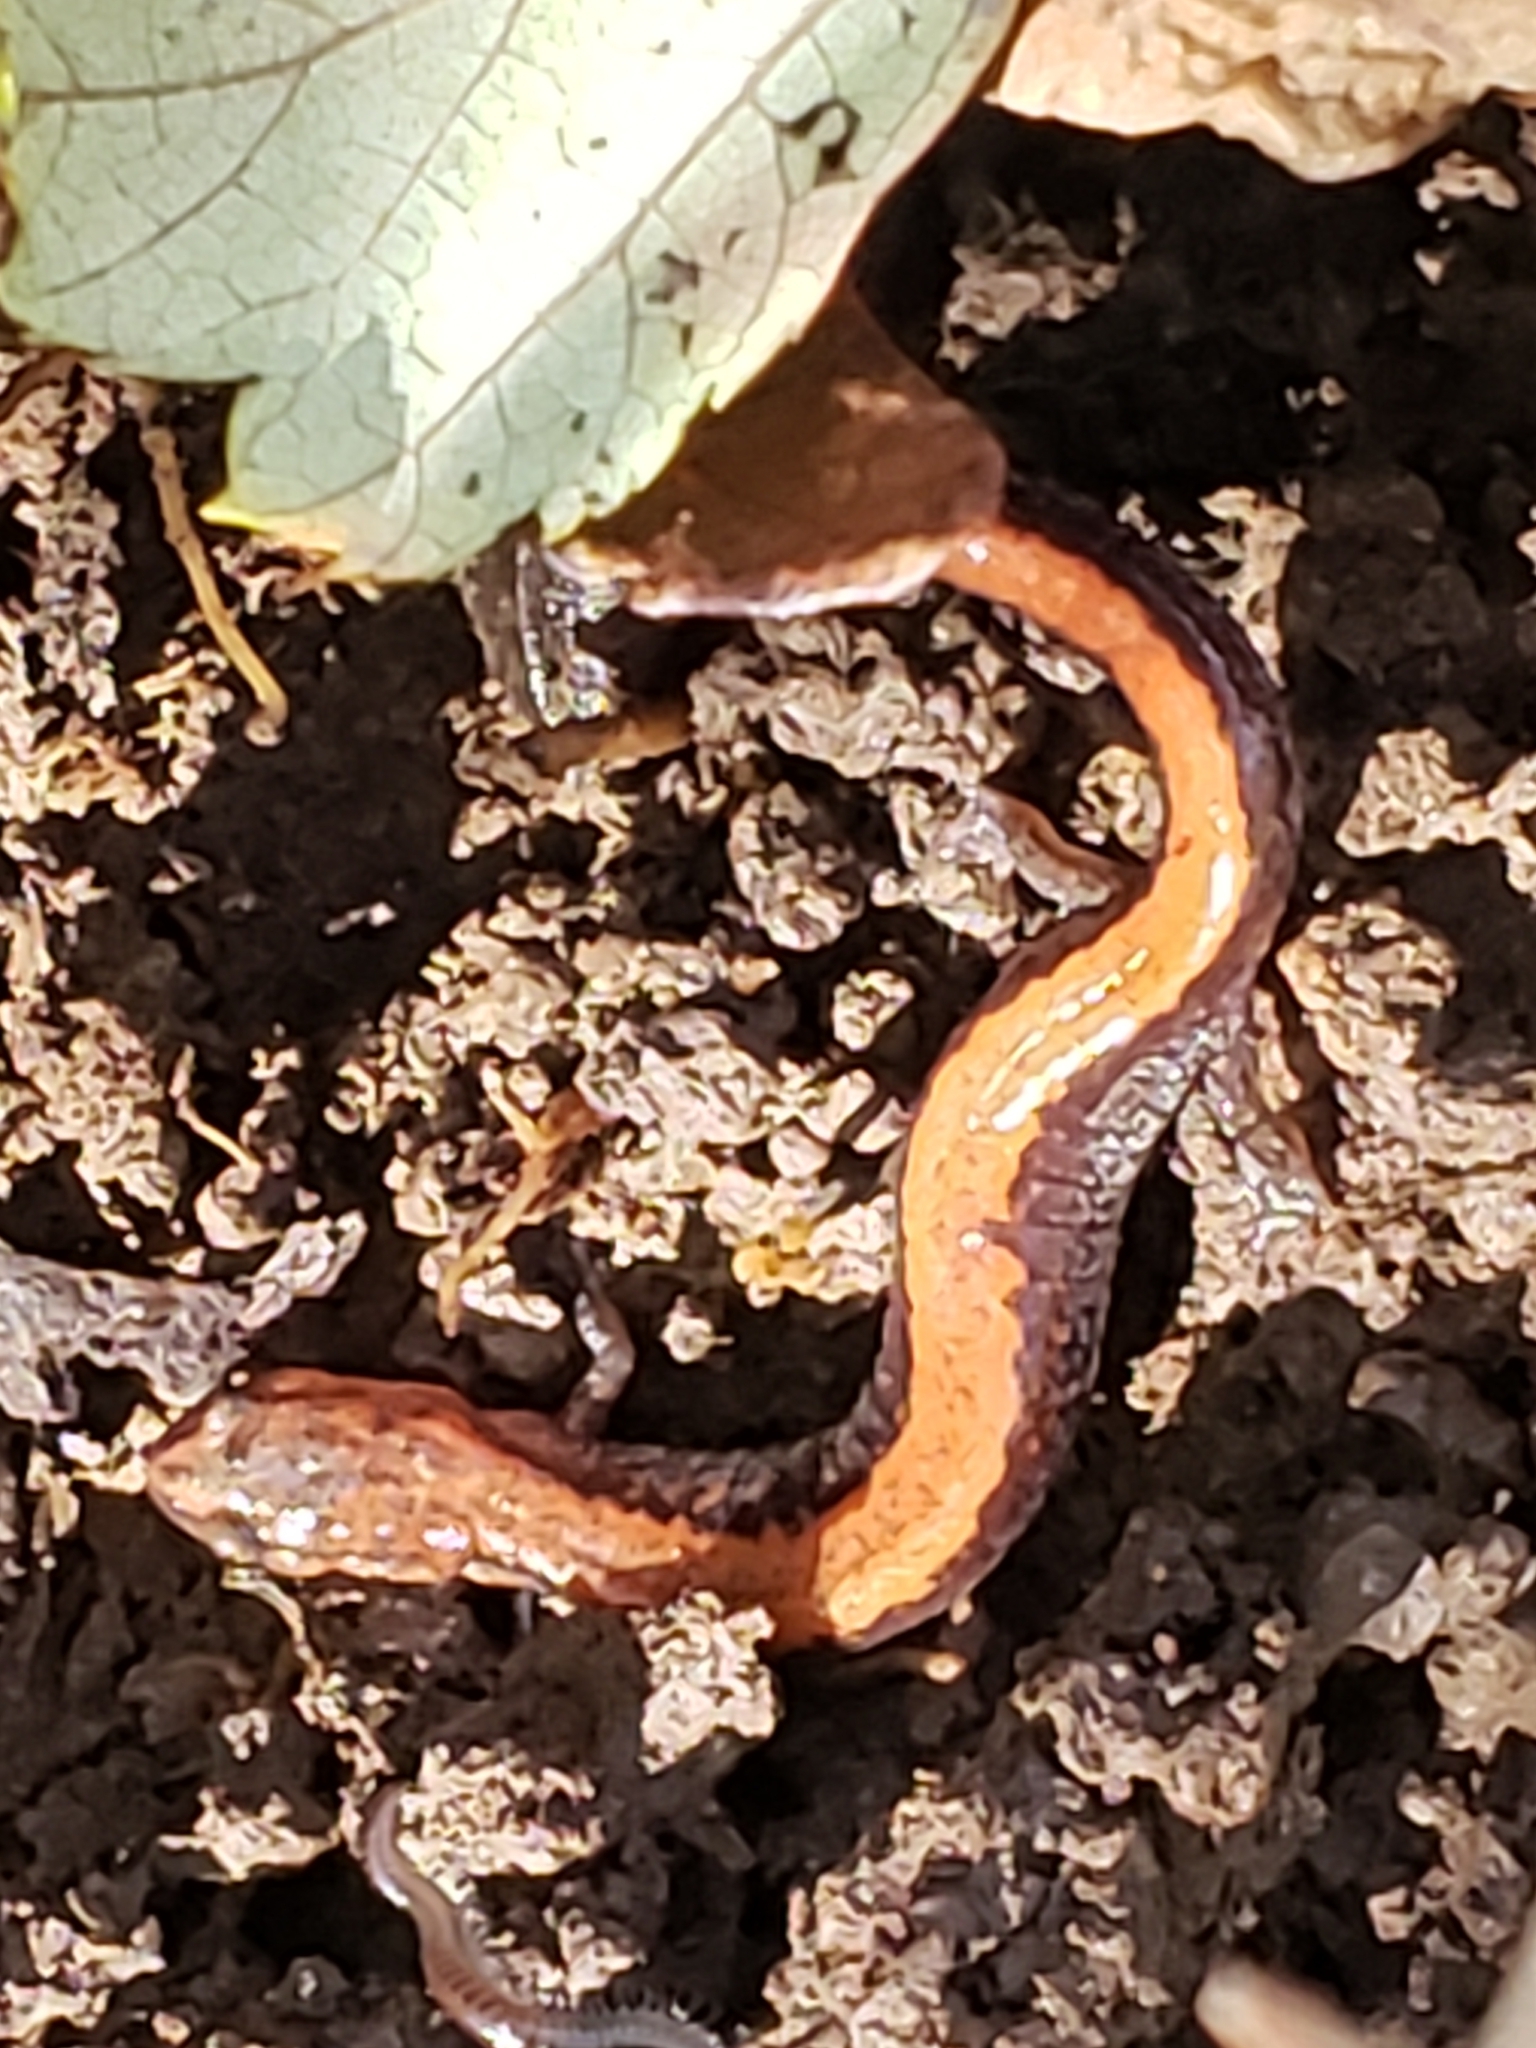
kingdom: Animalia
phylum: Chordata
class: Amphibia
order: Caudata
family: Plethodontidae
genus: Plethodon
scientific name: Plethodon cinereus
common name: Redback salamander
